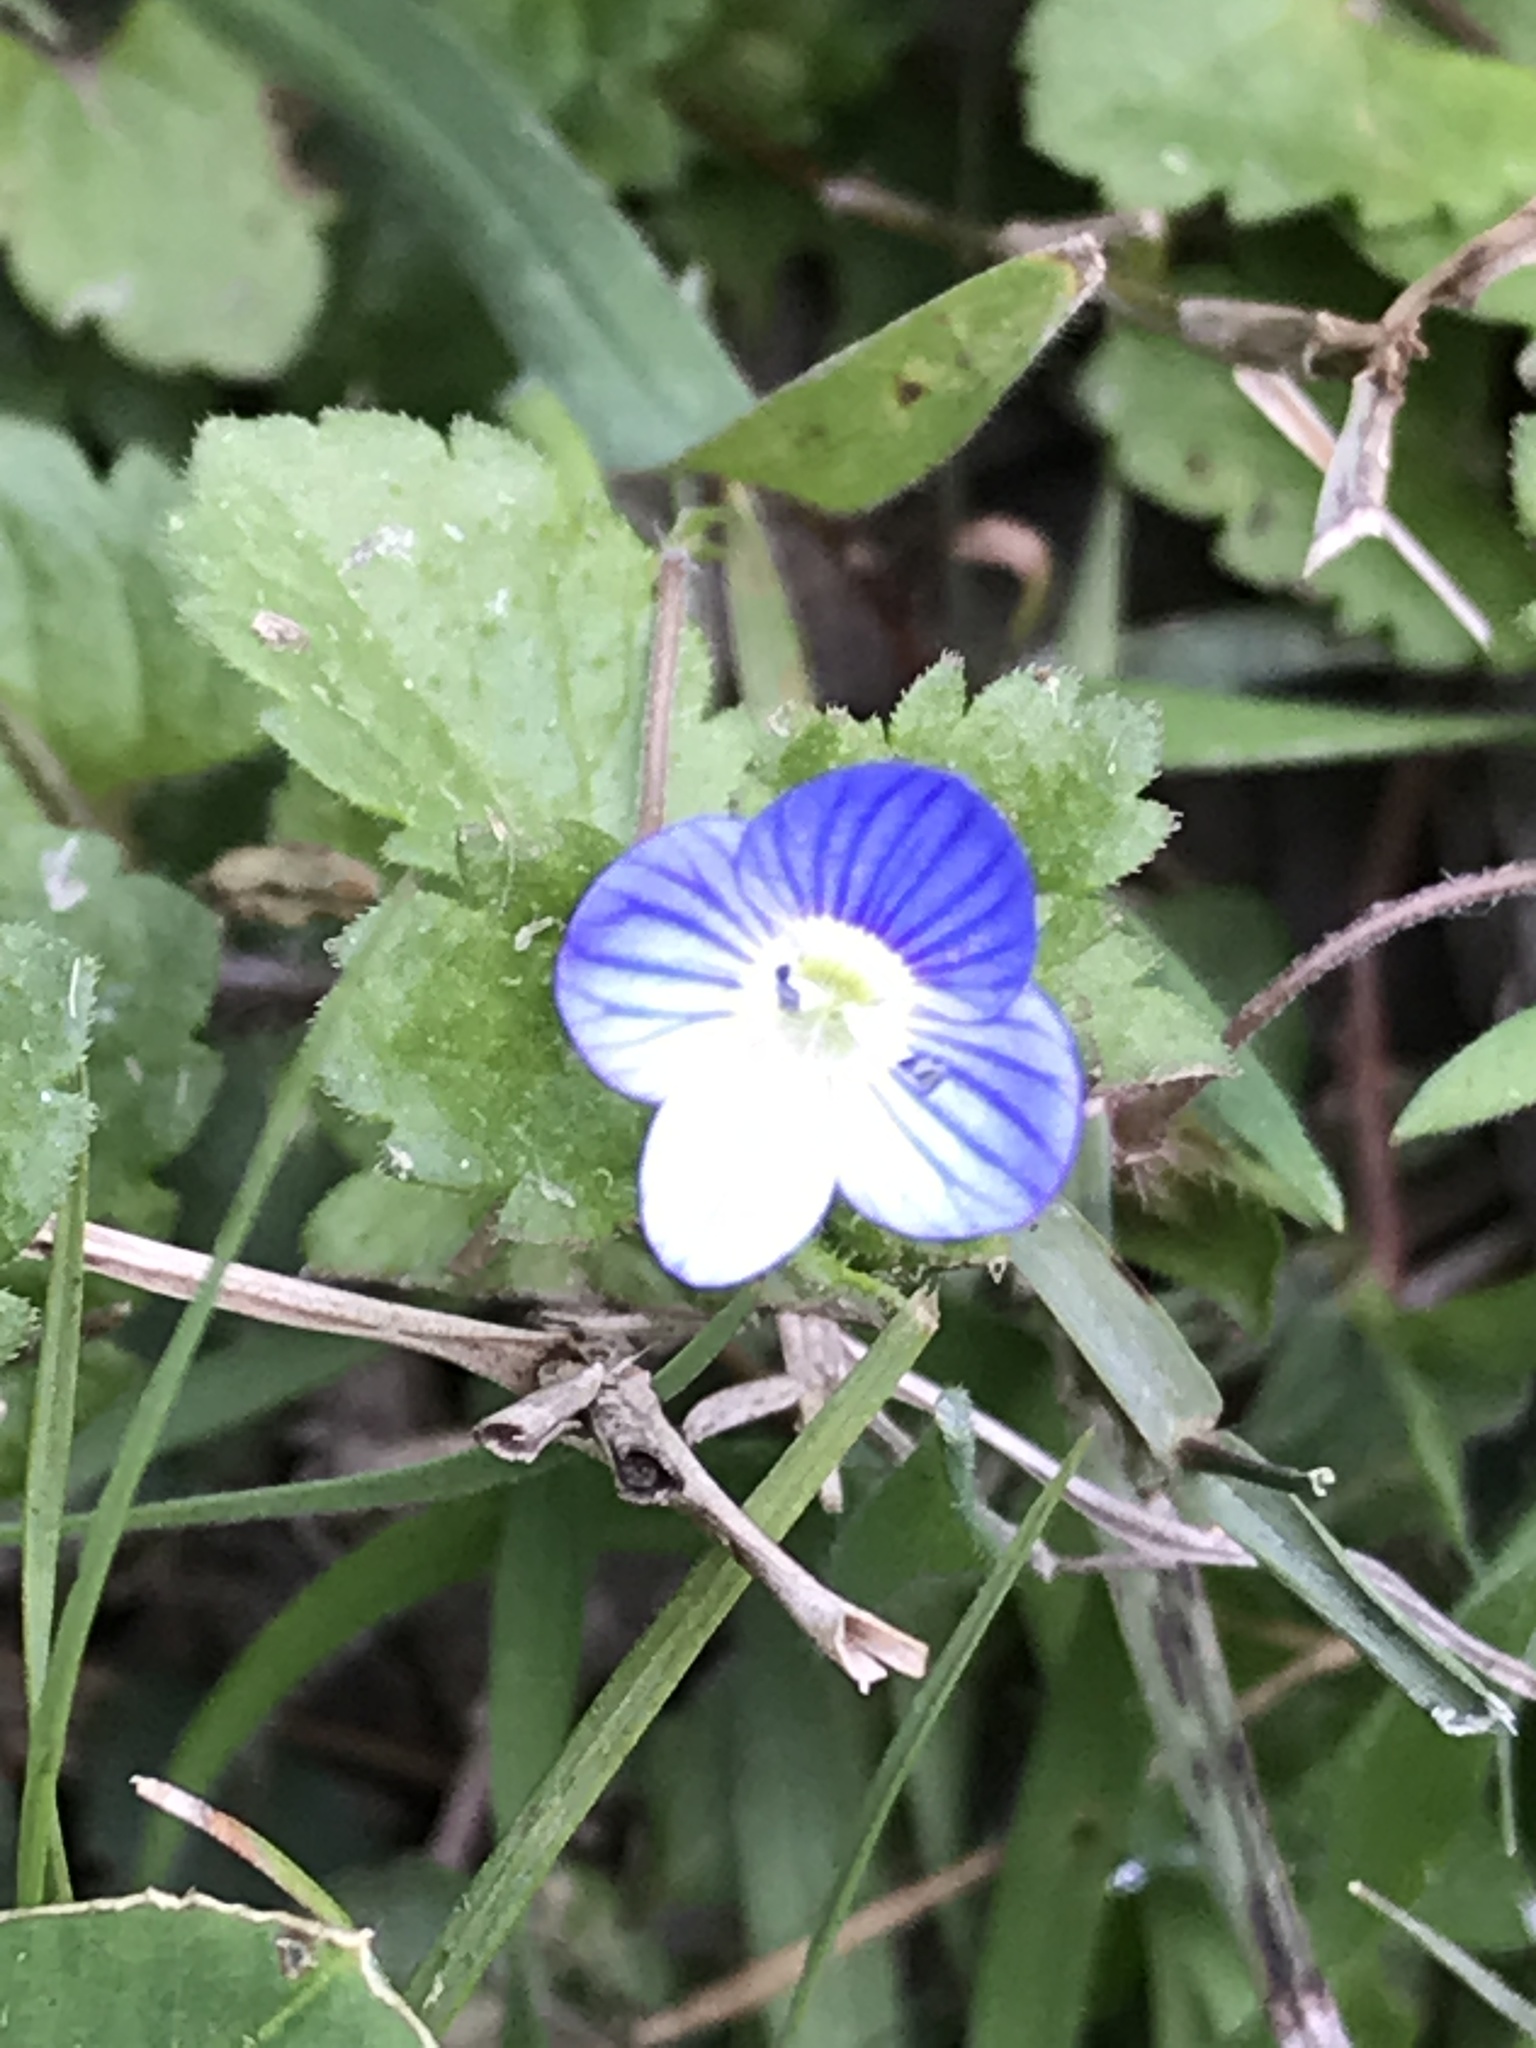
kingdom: Plantae
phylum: Tracheophyta
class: Magnoliopsida
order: Lamiales
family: Plantaginaceae
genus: Veronica
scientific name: Veronica persica
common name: Common field-speedwell
